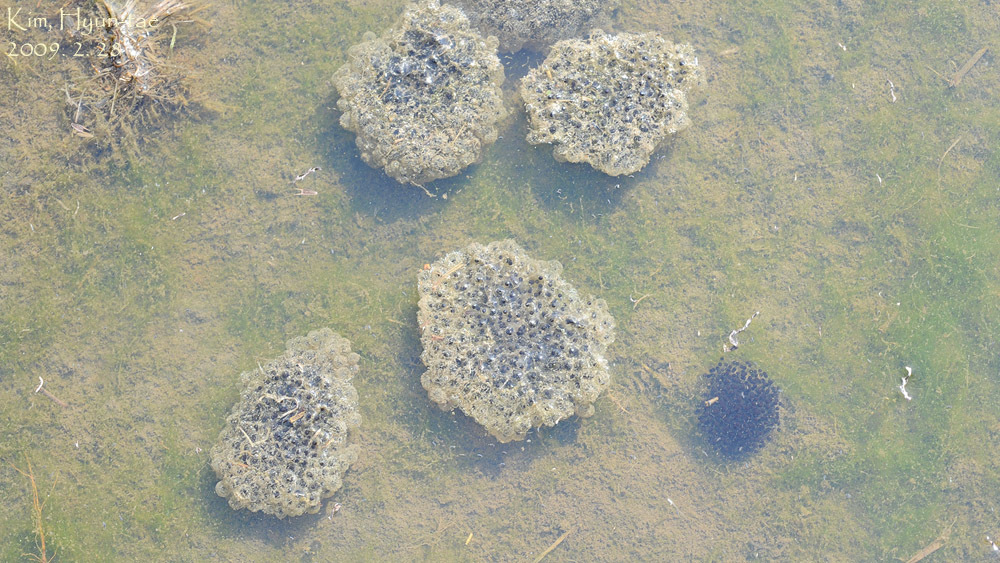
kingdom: Animalia
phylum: Chordata
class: Amphibia
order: Anura
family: Ranidae
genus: Rana
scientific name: Rana coreana
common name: Korean brown frog
